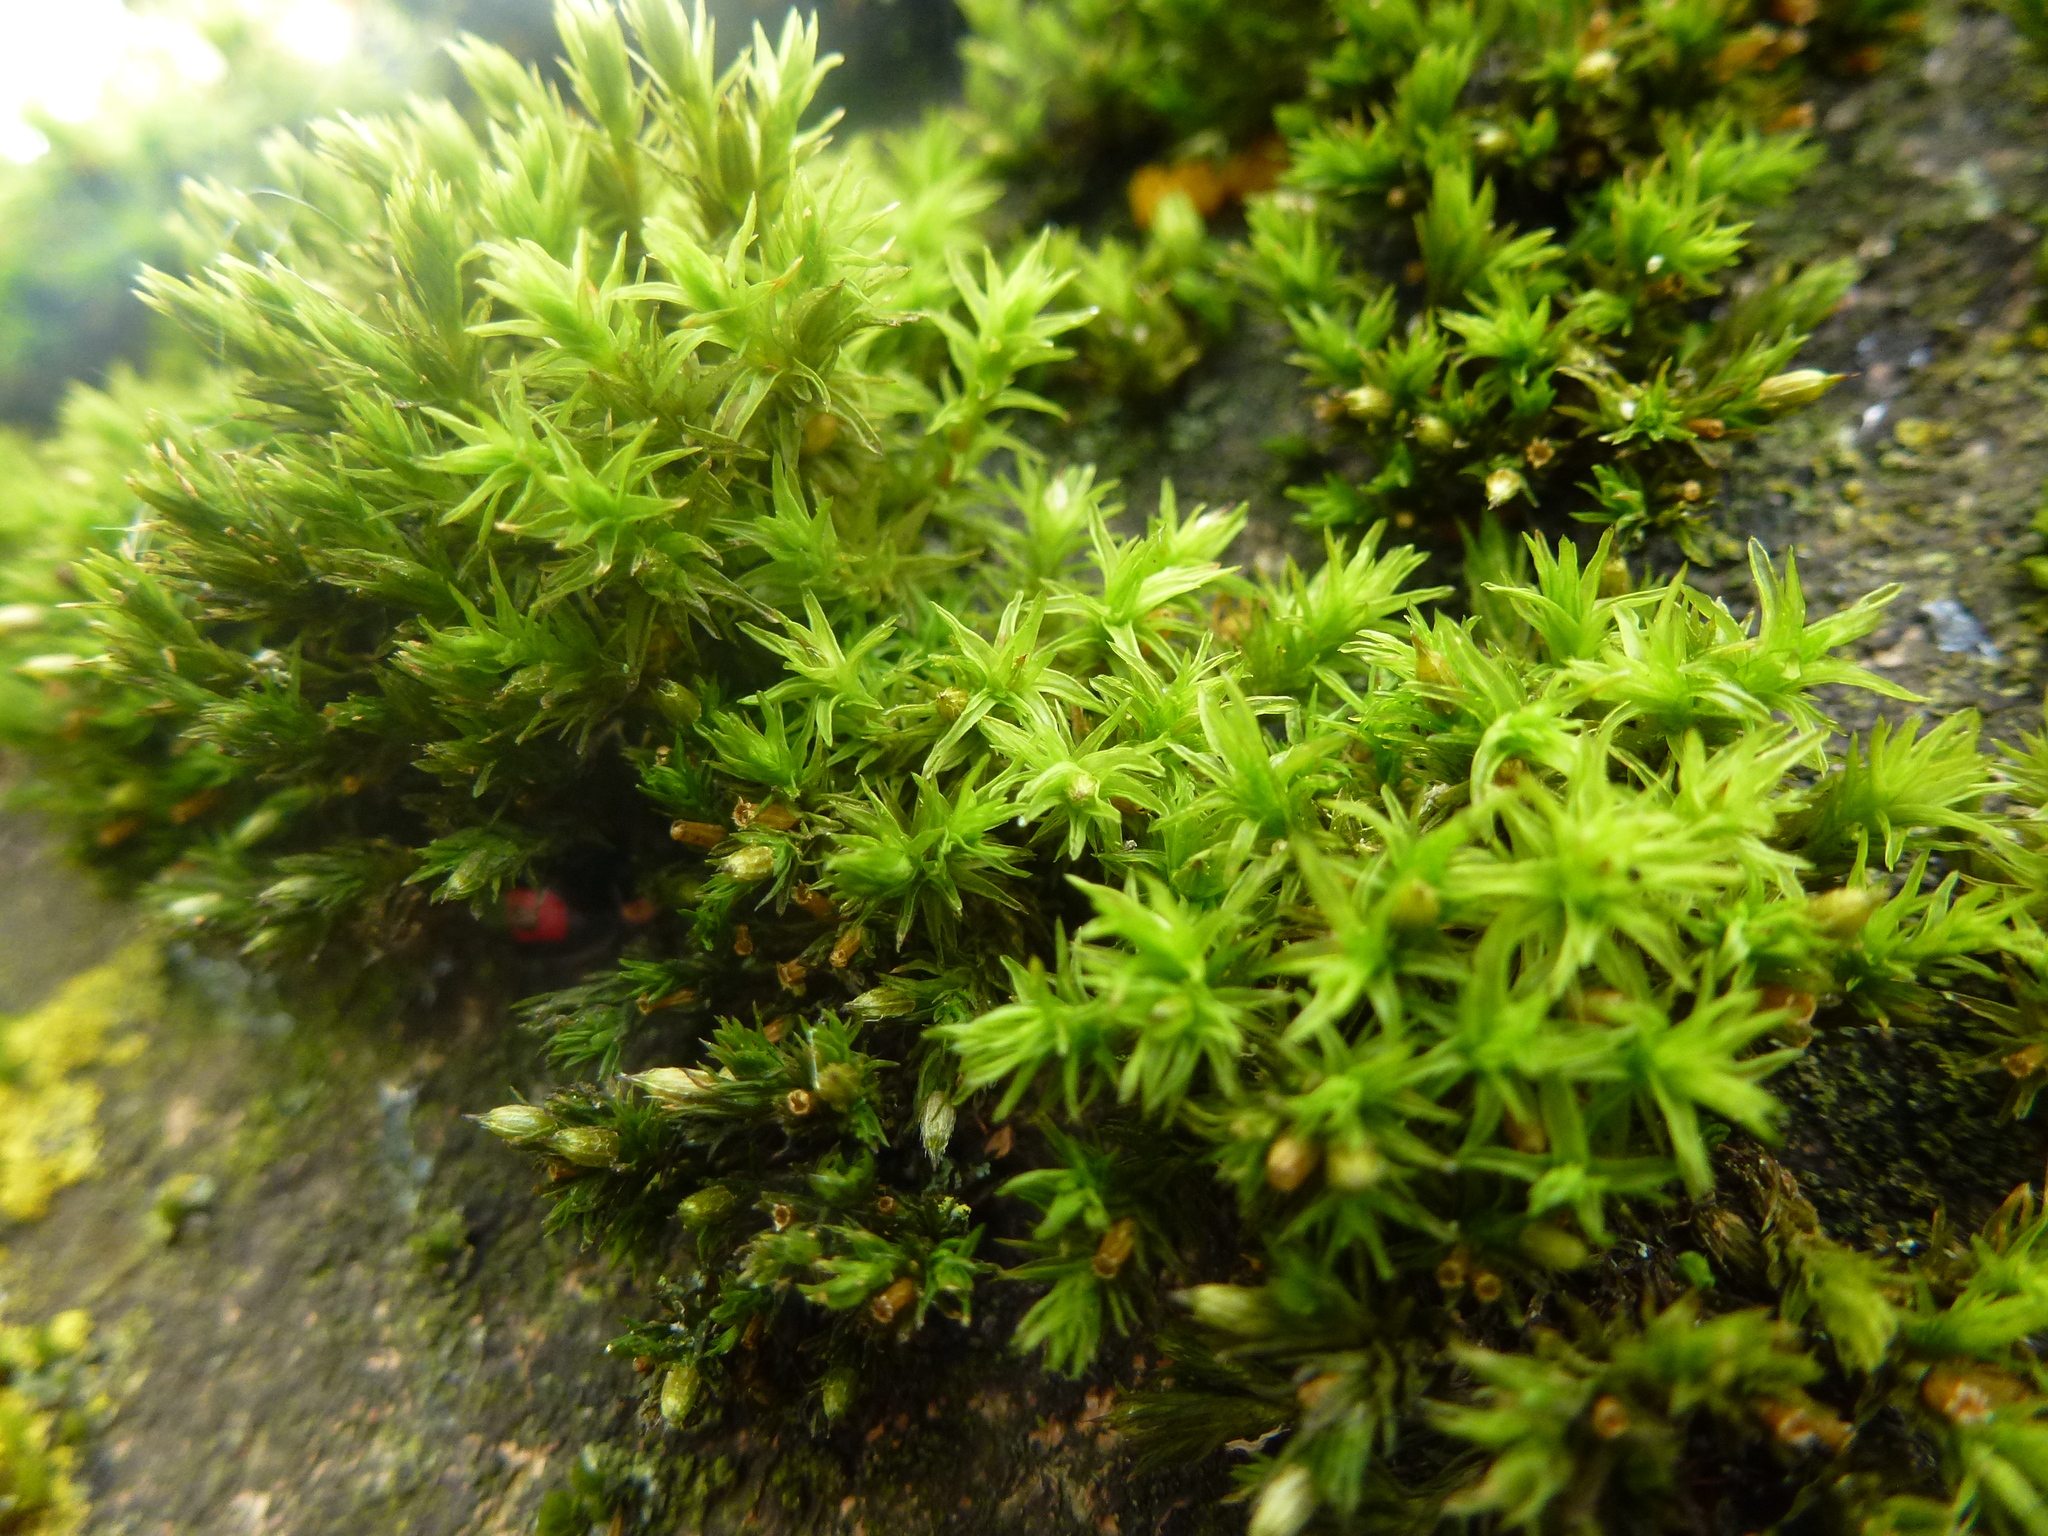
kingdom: Plantae
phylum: Bryophyta
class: Bryopsida
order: Orthotrichales
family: Orthotrichaceae
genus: Lewinskya
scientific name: Lewinskya affinis
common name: Wood bristle-moss
